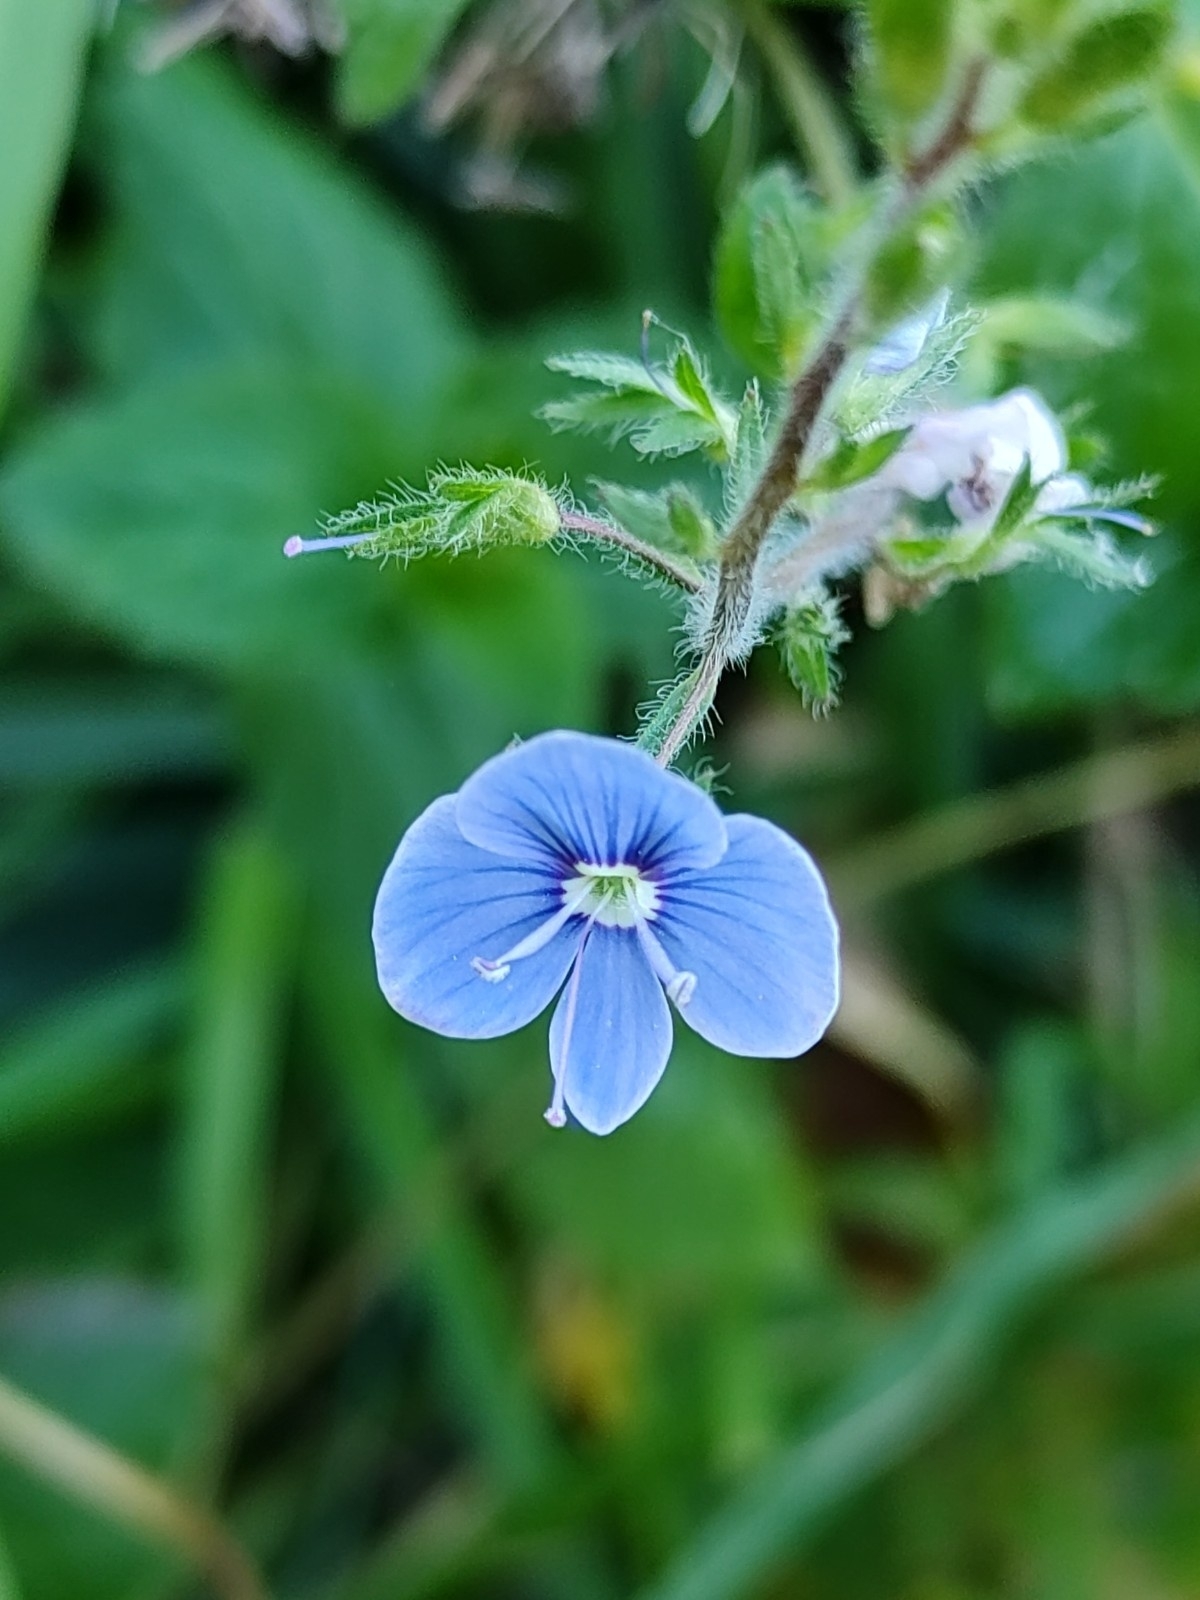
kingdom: Plantae
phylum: Tracheophyta
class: Magnoliopsida
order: Lamiales
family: Plantaginaceae
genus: Veronica
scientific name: Veronica chamaedrys
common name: Germander speedwell
